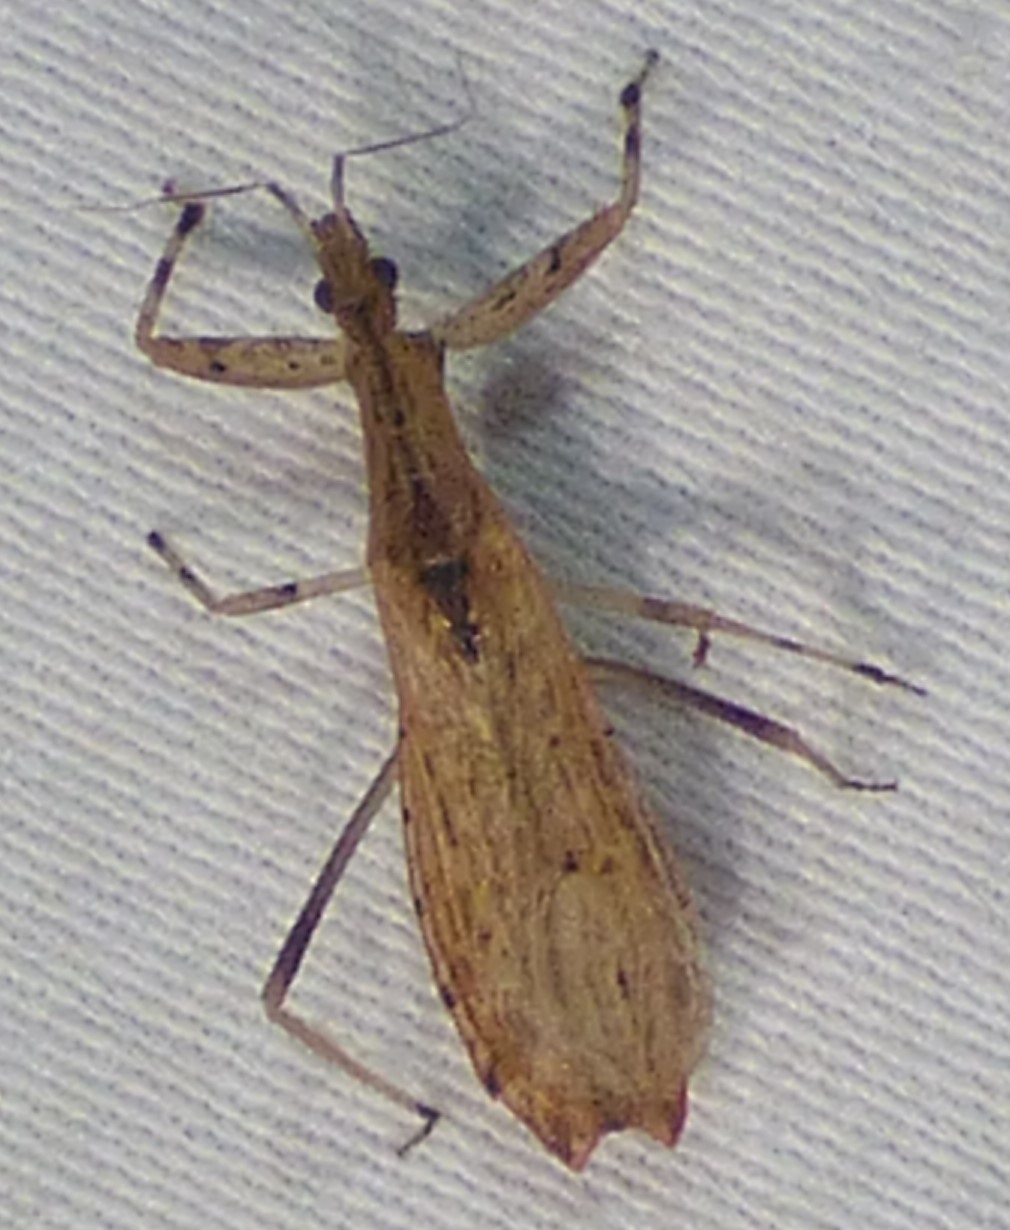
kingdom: Animalia
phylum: Arthropoda
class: Insecta
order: Hemiptera
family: Reduviidae
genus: Ctenotrachelus
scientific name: Ctenotrachelus shermani
